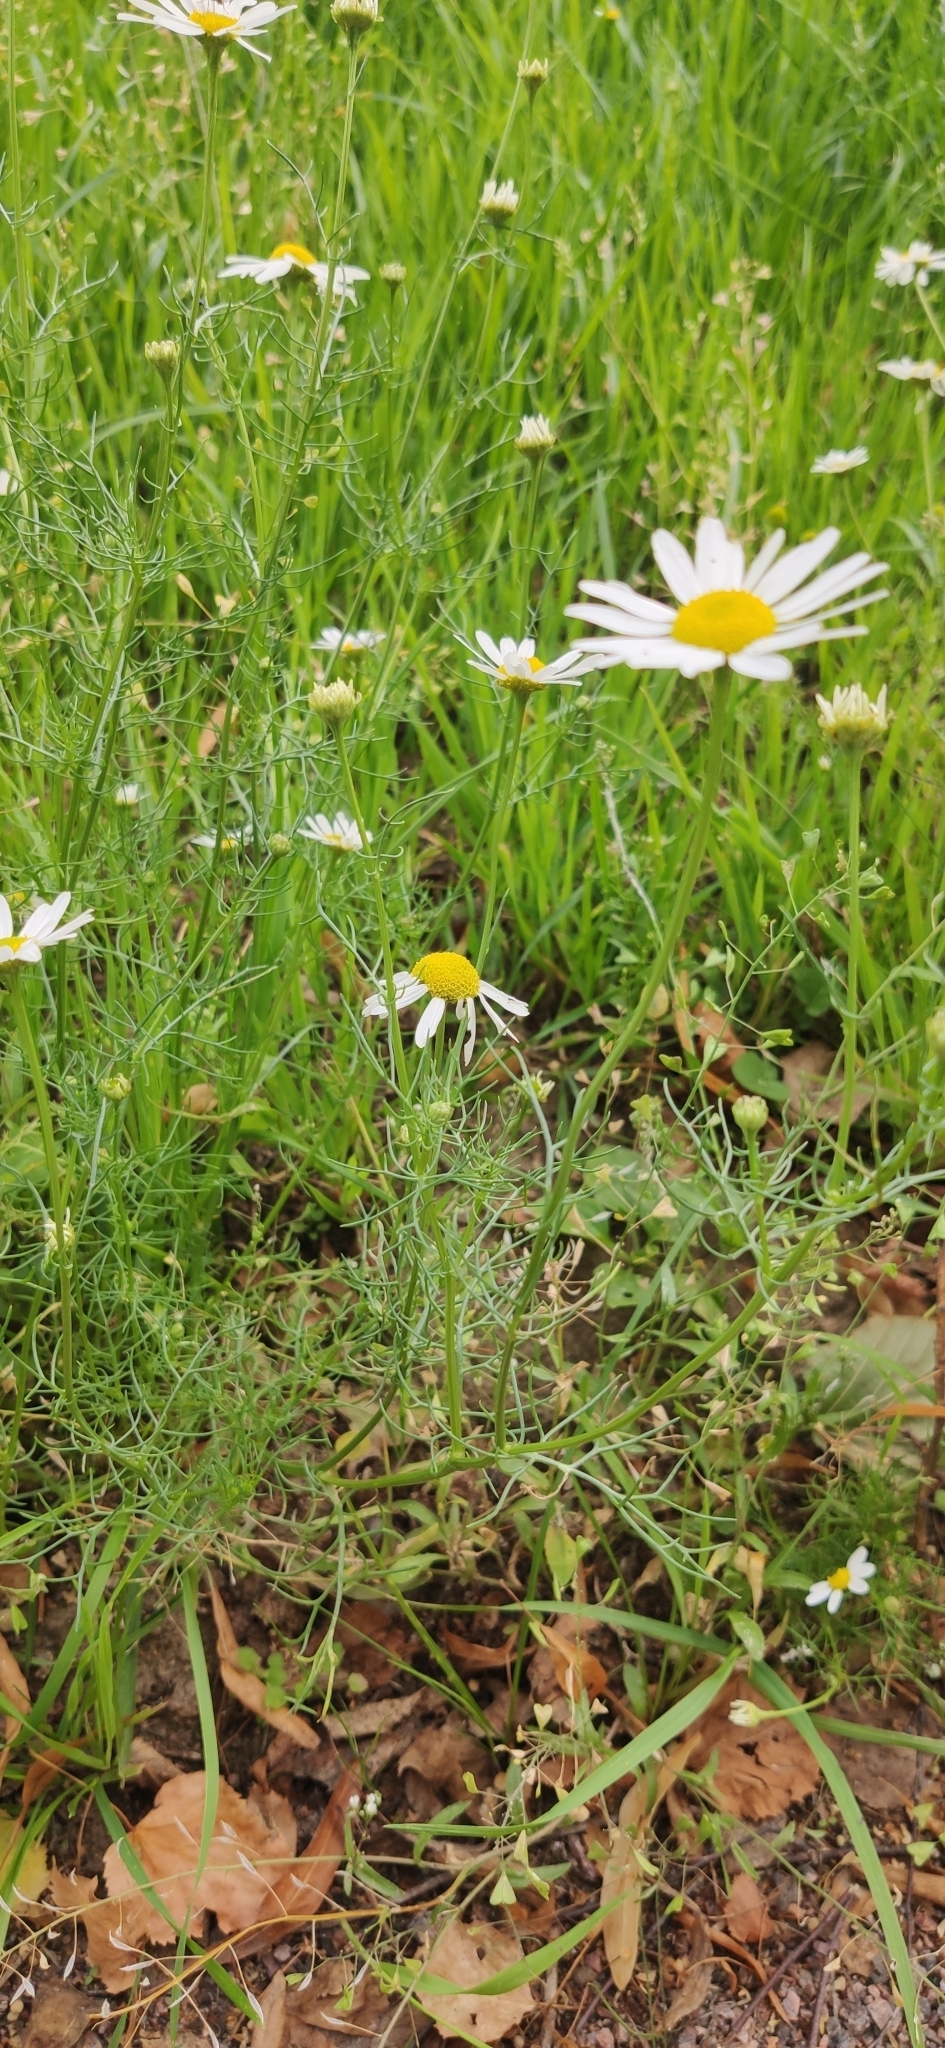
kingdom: Plantae
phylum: Tracheophyta
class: Magnoliopsida
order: Asterales
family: Asteraceae
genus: Tripleurospermum
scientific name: Tripleurospermum inodorum
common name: Scentless mayweed
